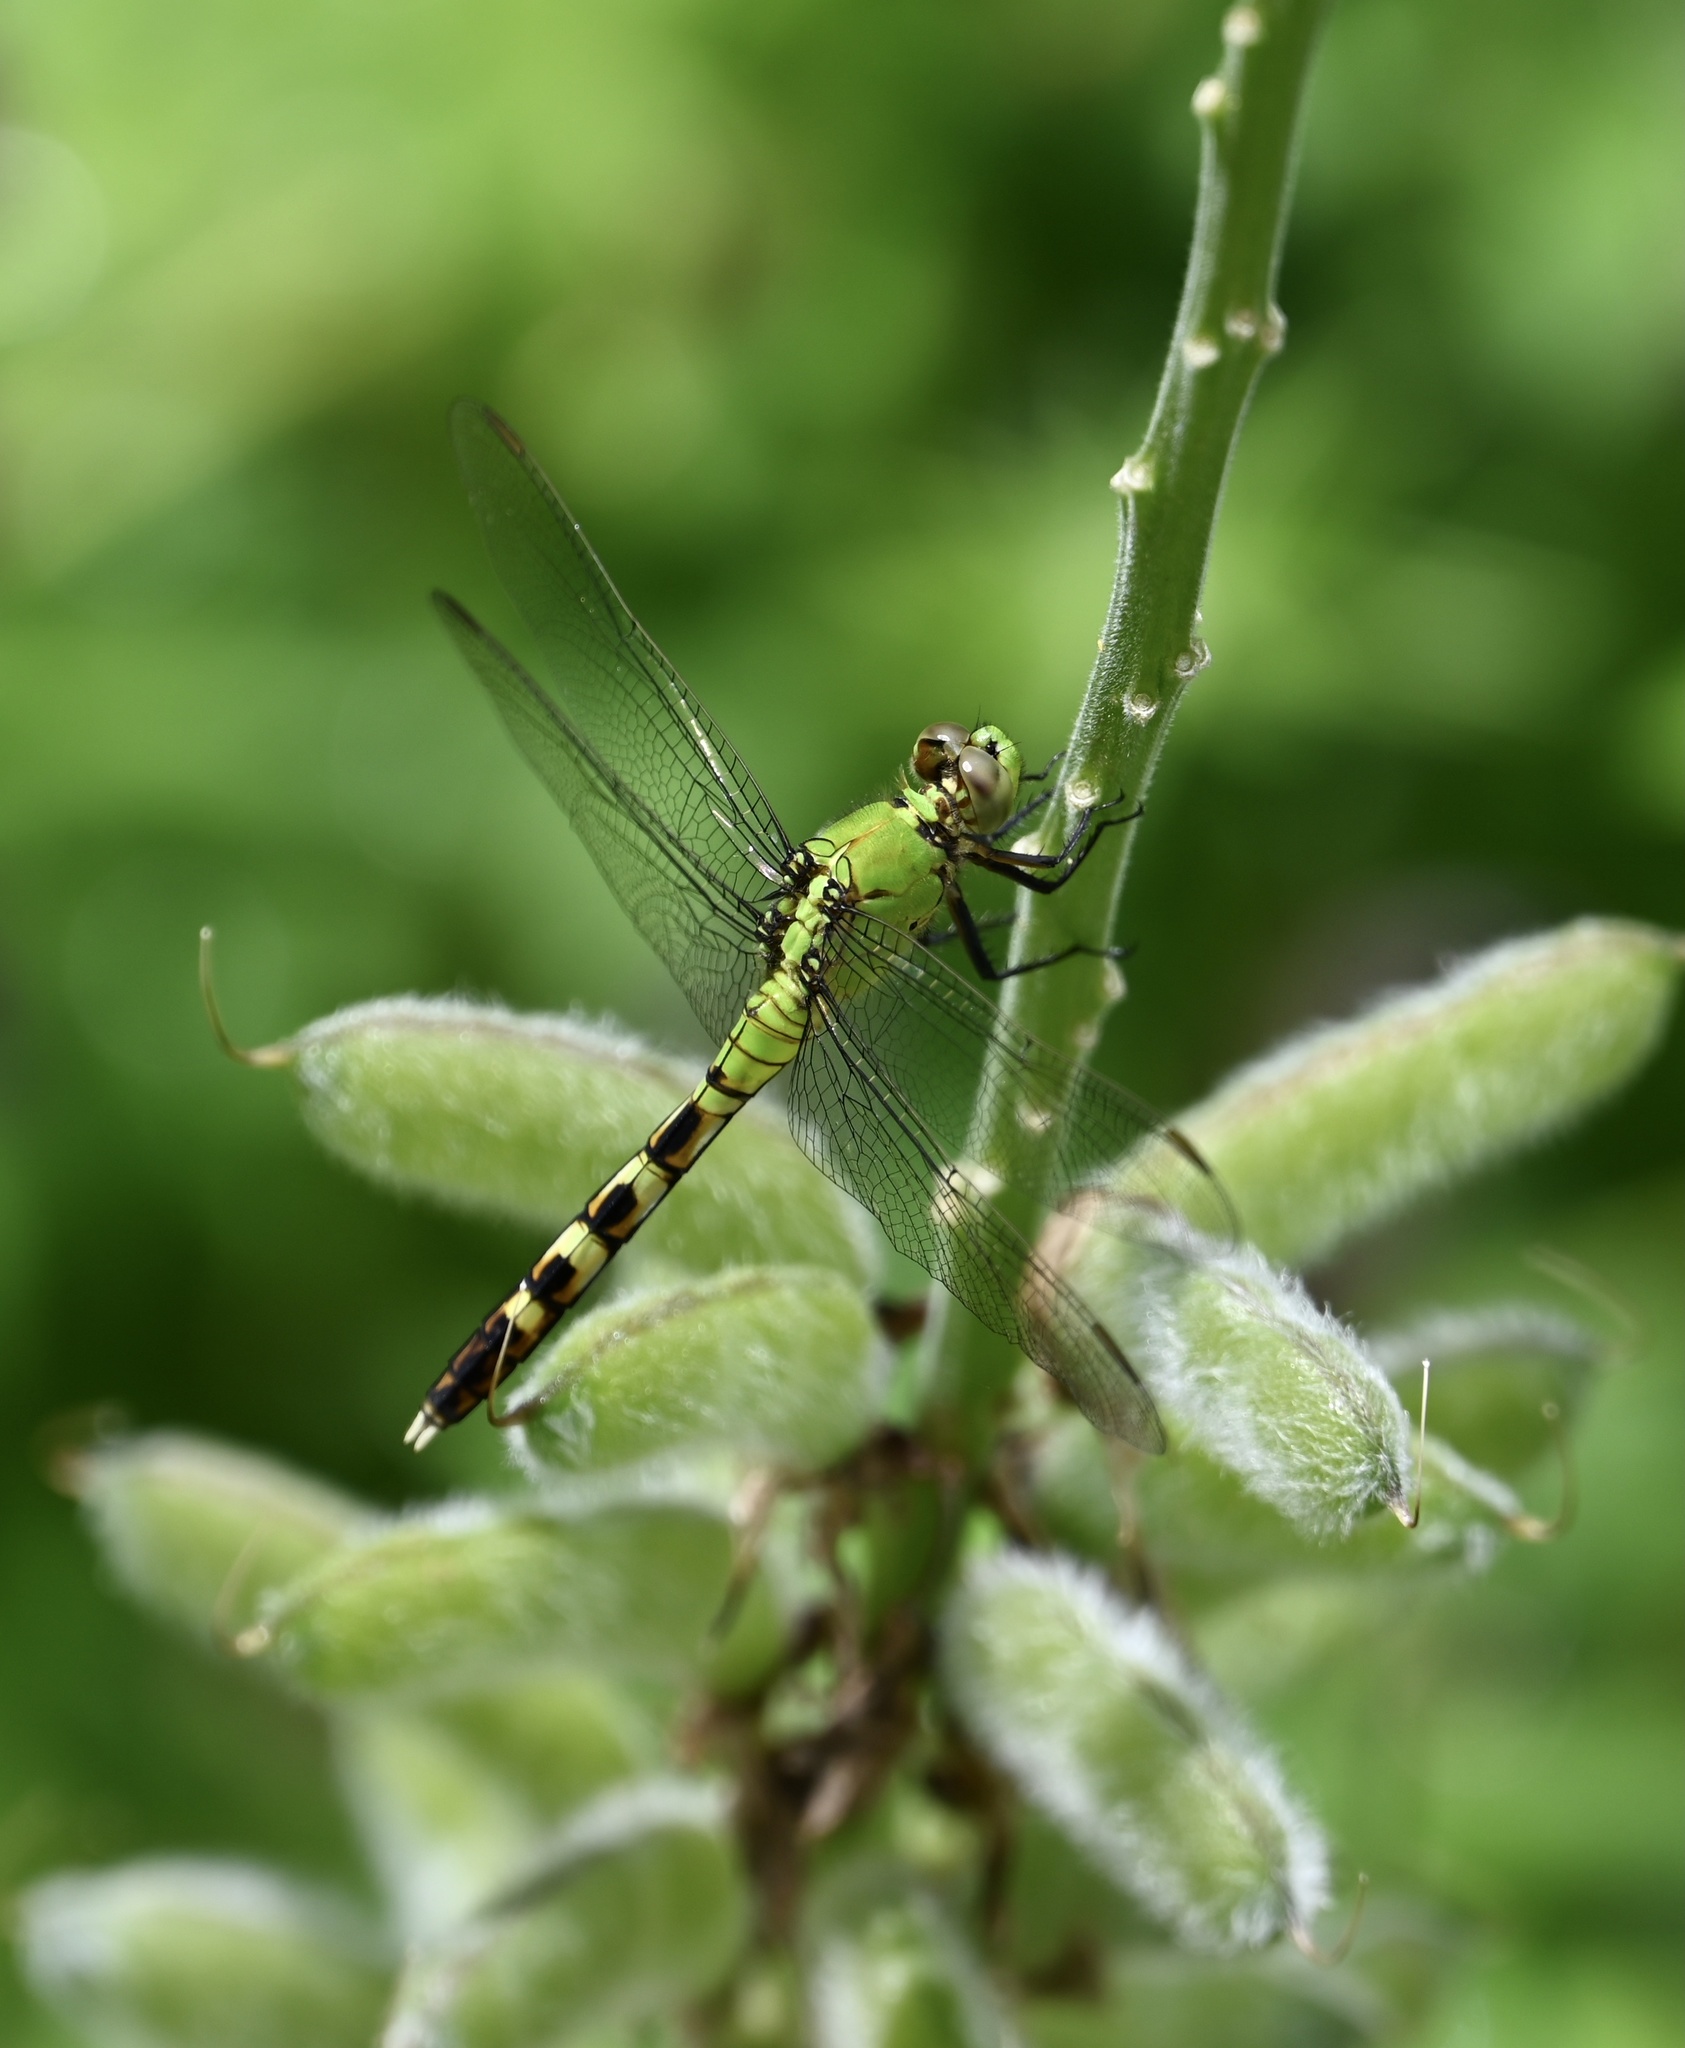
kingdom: Animalia
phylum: Arthropoda
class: Insecta
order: Odonata
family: Libellulidae
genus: Erythemis
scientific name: Erythemis simplicicollis
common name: Eastern pondhawk
